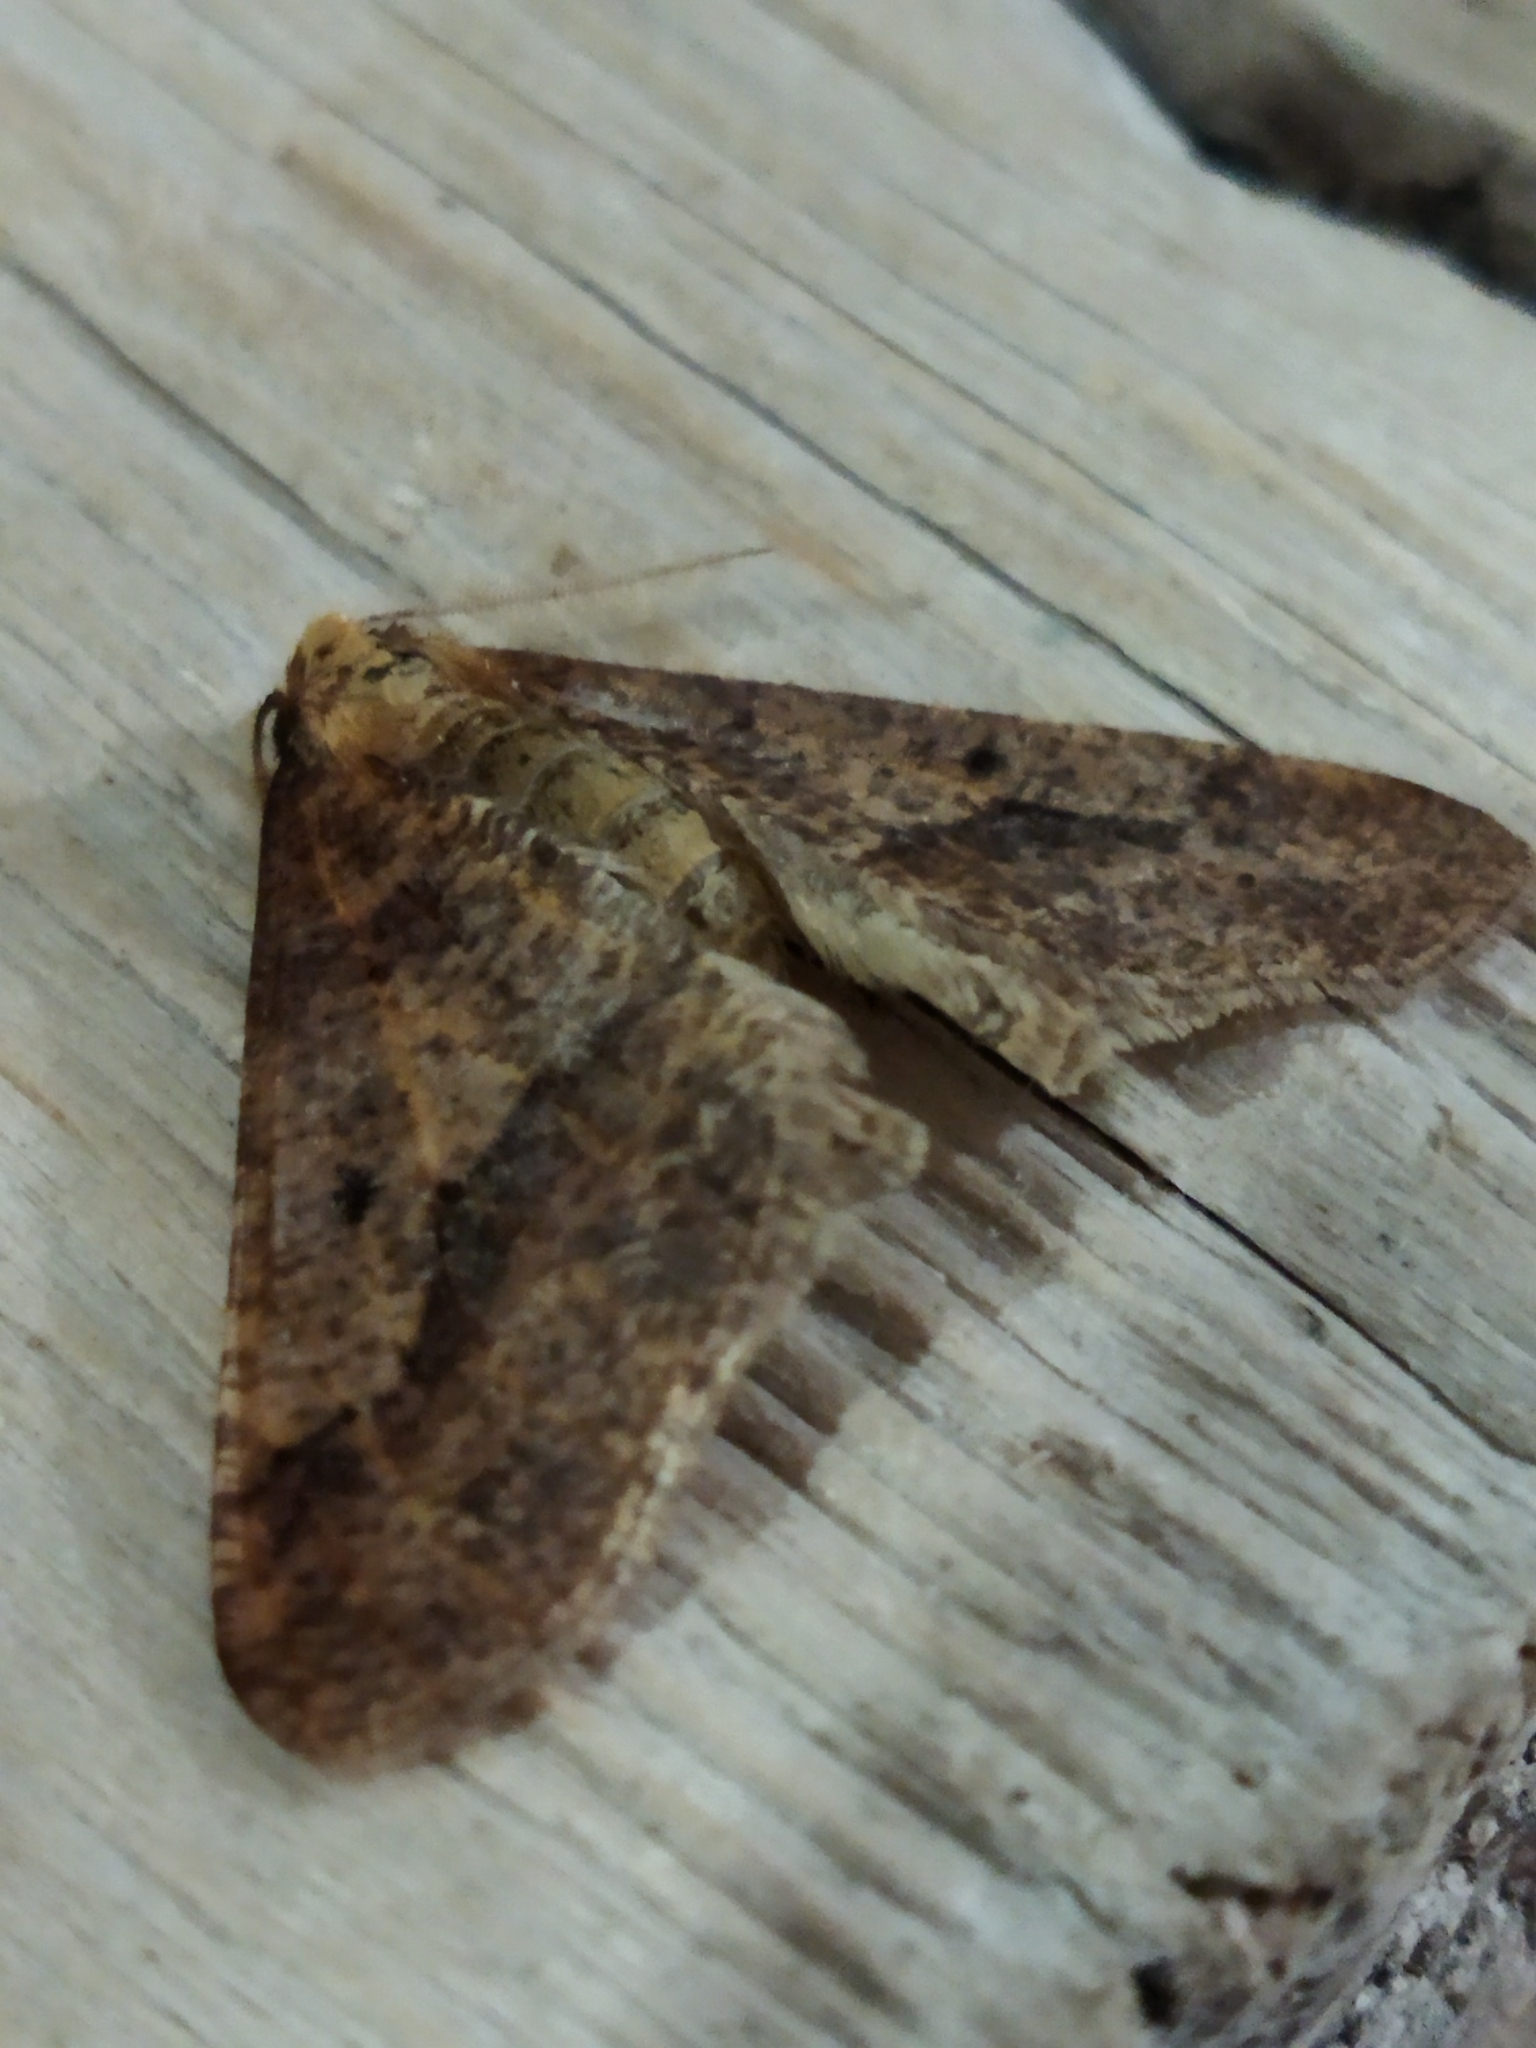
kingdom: Animalia
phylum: Arthropoda
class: Insecta
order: Lepidoptera
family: Geometridae
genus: Erannis
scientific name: Erannis defoliaria
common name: Mottled umber
